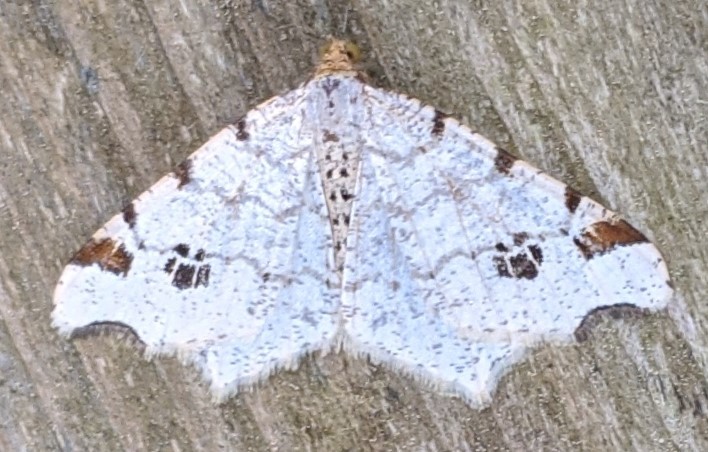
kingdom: Animalia
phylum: Arthropoda
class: Insecta
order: Lepidoptera
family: Geometridae
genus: Macaria
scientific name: Macaria ulsterata
